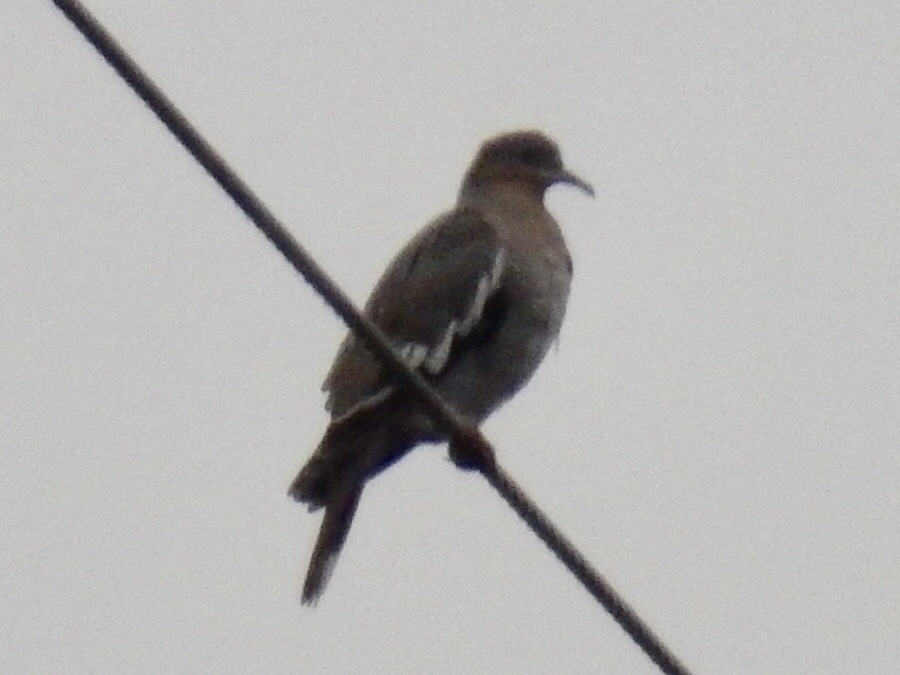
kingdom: Animalia
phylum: Chordata
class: Aves
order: Columbiformes
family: Columbidae
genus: Zenaida
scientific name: Zenaida asiatica
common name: White-winged dove
